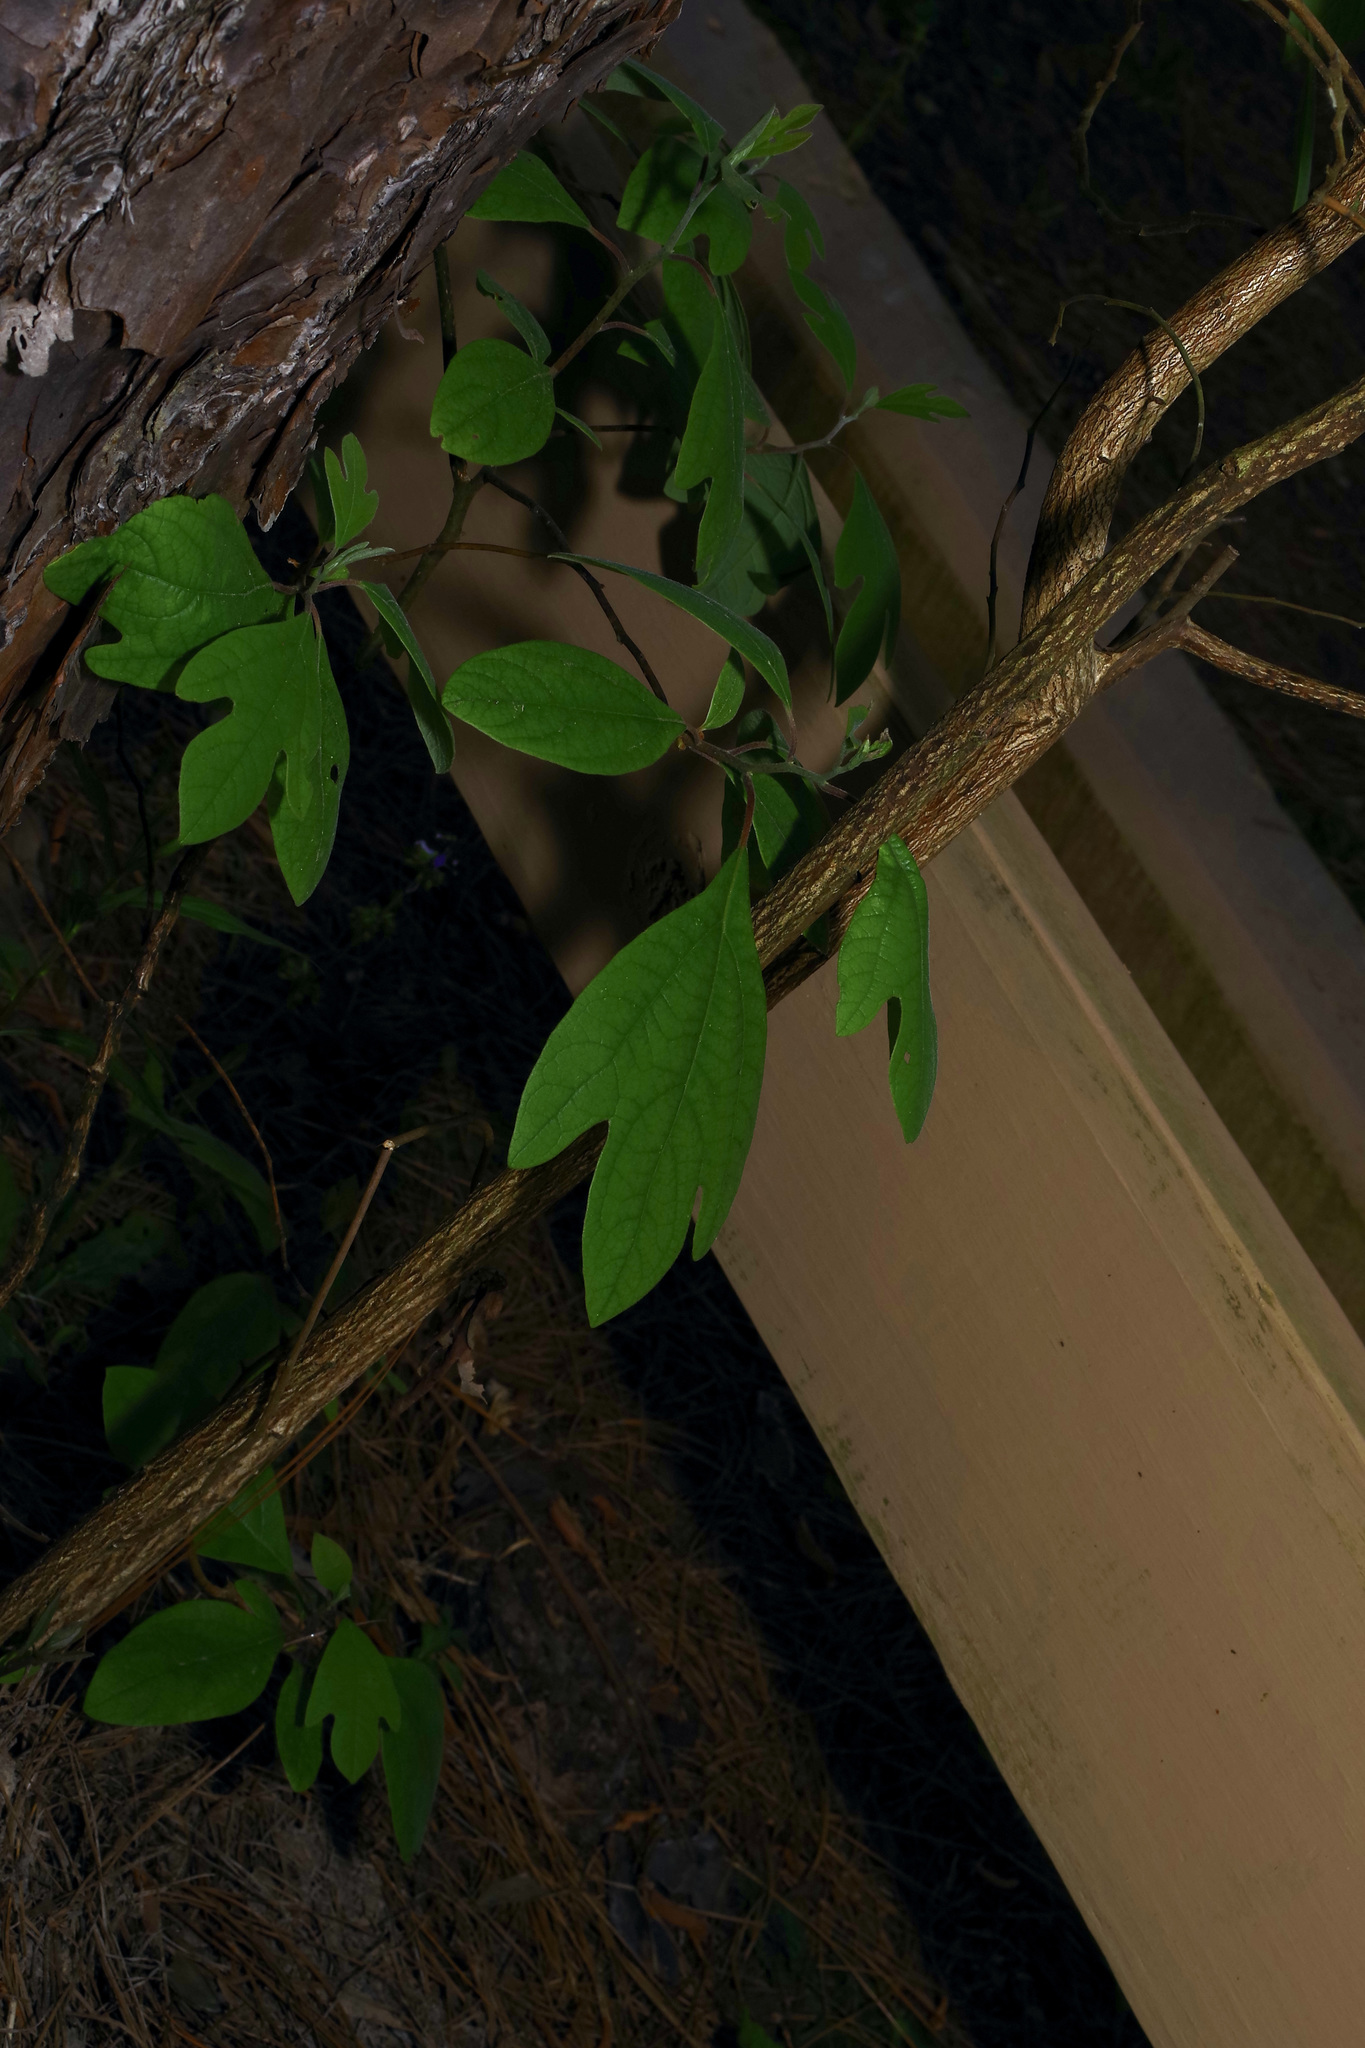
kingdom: Plantae
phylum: Tracheophyta
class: Magnoliopsida
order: Laurales
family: Lauraceae
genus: Sassafras
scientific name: Sassafras albidum
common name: Sassafras
